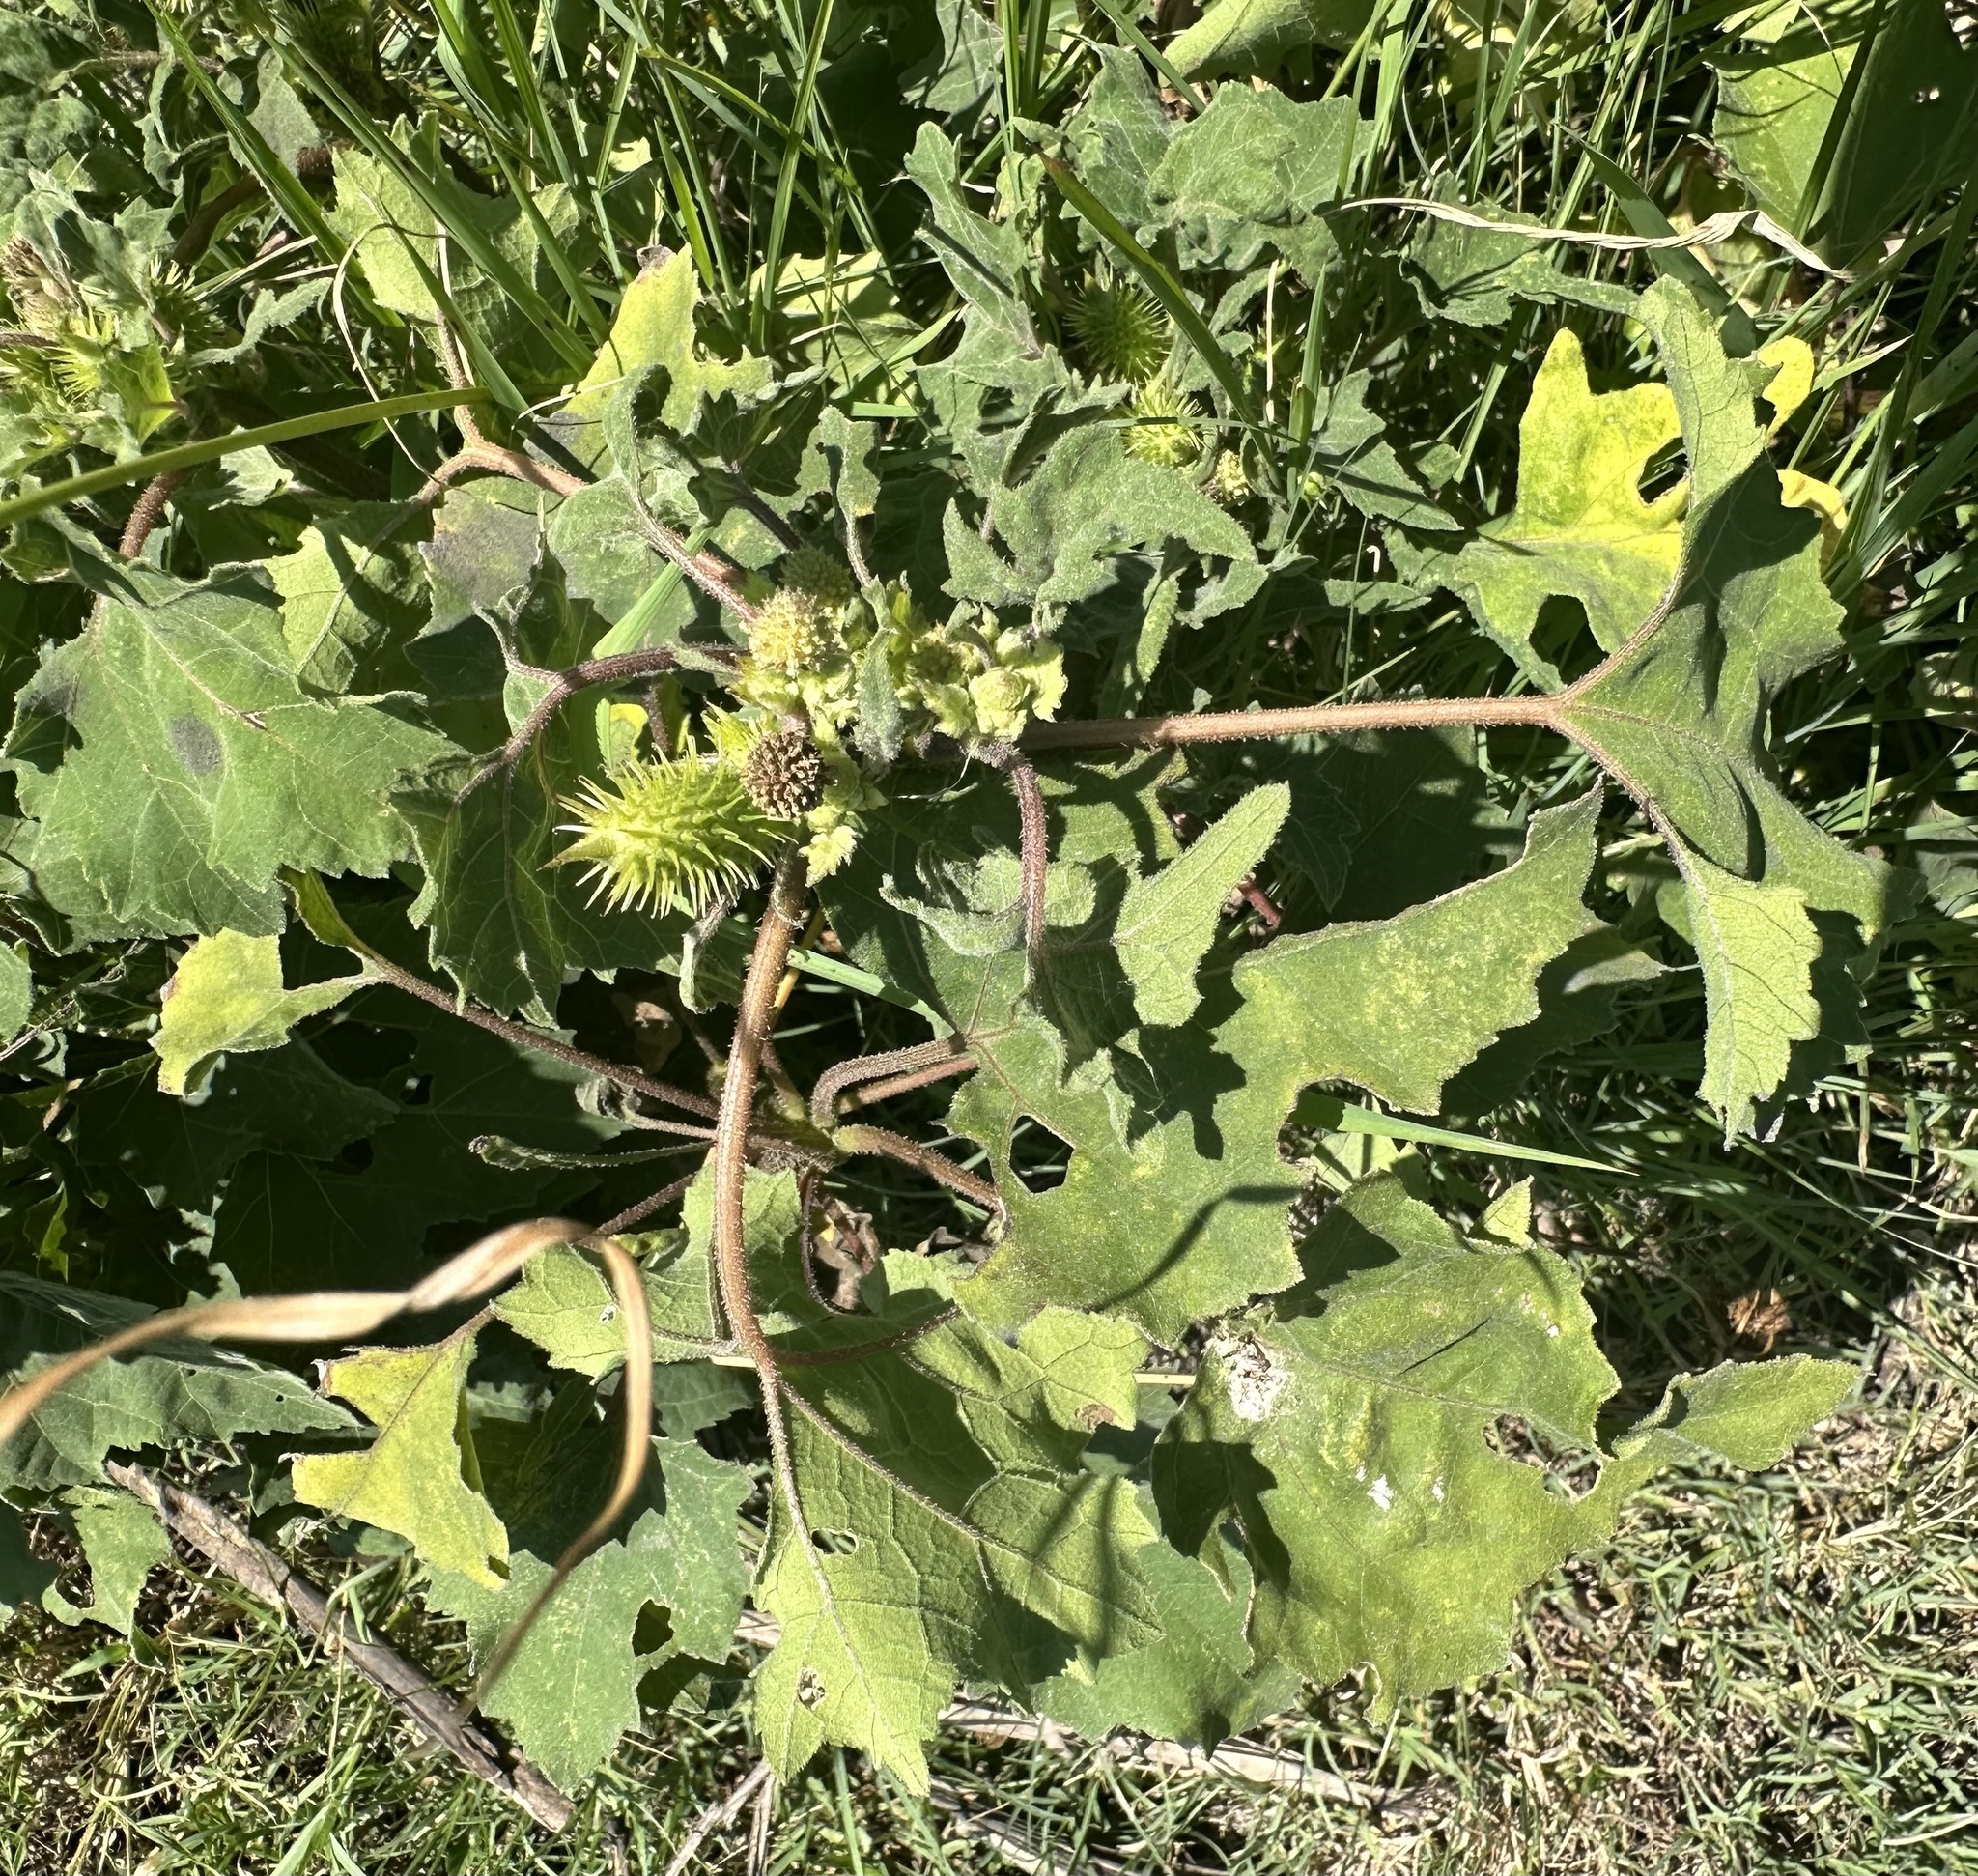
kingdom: Plantae
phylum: Tracheophyta
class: Magnoliopsida
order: Asterales
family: Asteraceae
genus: Xanthium
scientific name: Xanthium strumarium
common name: Rough cocklebur
